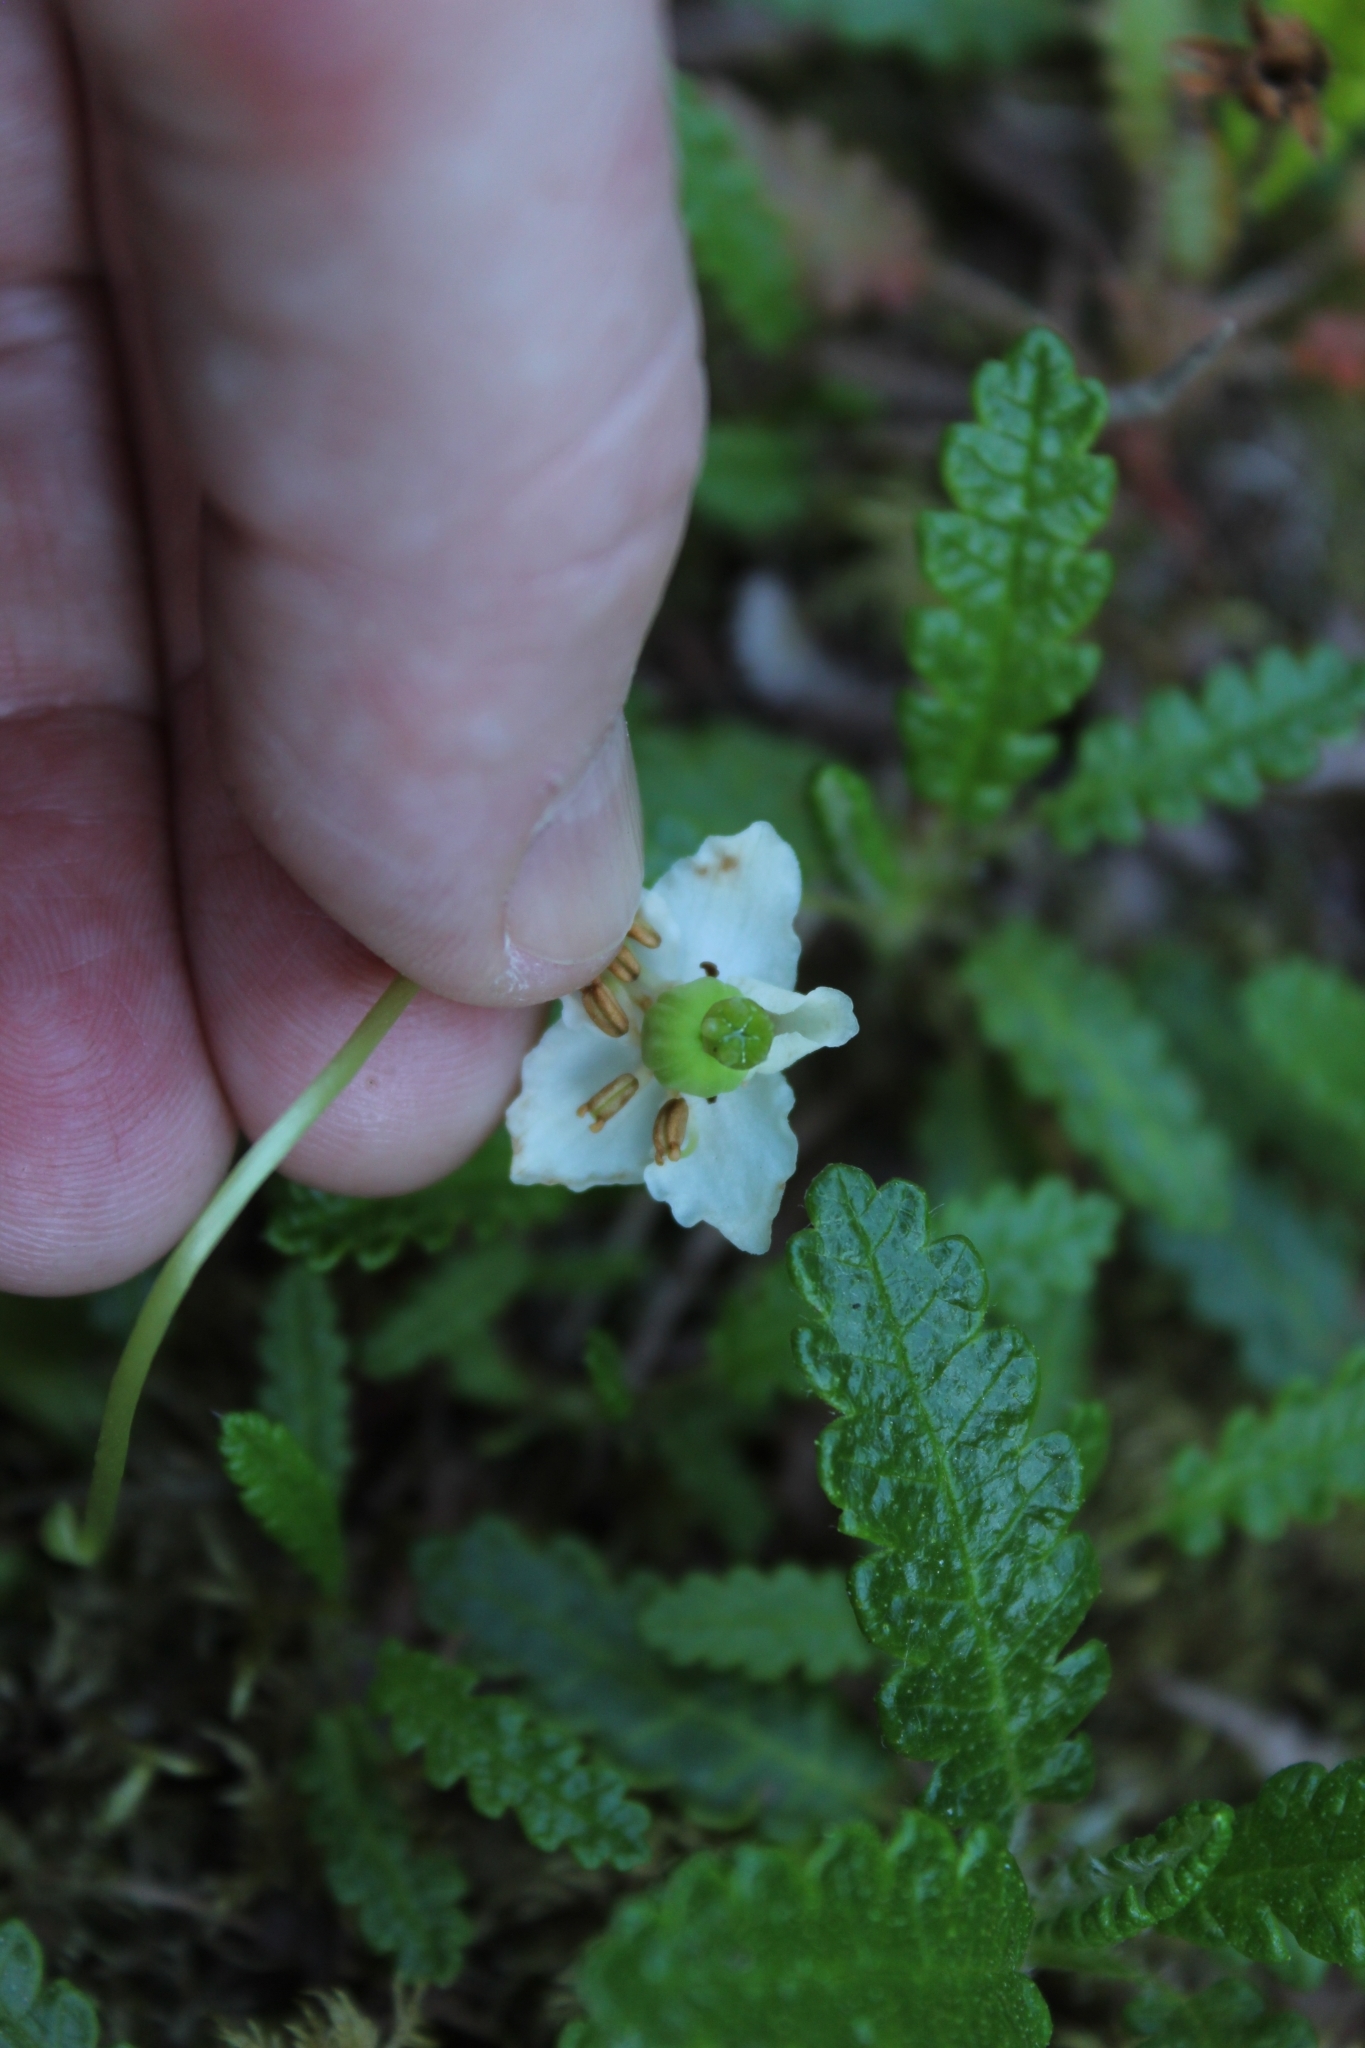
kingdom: Plantae
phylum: Tracheophyta
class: Magnoliopsida
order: Ericales
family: Ericaceae
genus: Moneses
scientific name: Moneses uniflora
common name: One-flowered wintergreen
